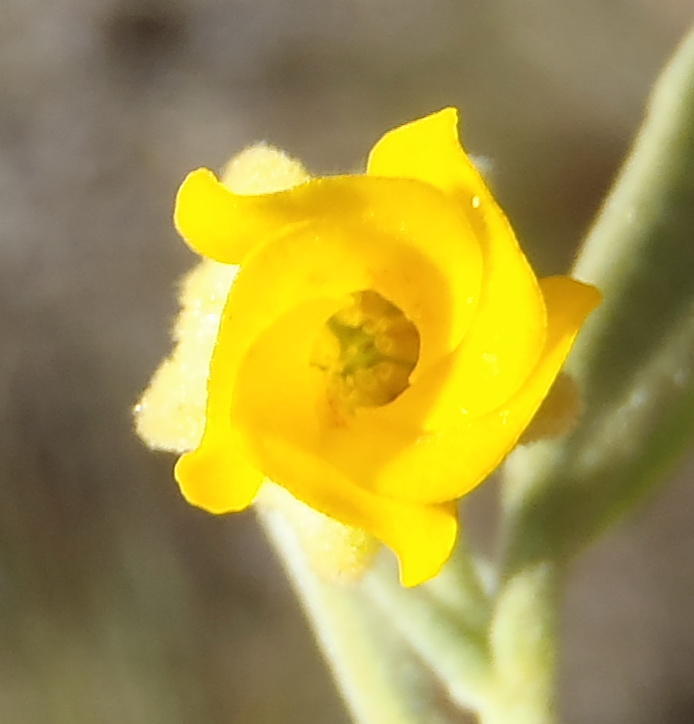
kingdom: Plantae
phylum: Tracheophyta
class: Magnoliopsida
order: Malvales
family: Malvaceae
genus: Hermannia
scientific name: Hermannia velutina
